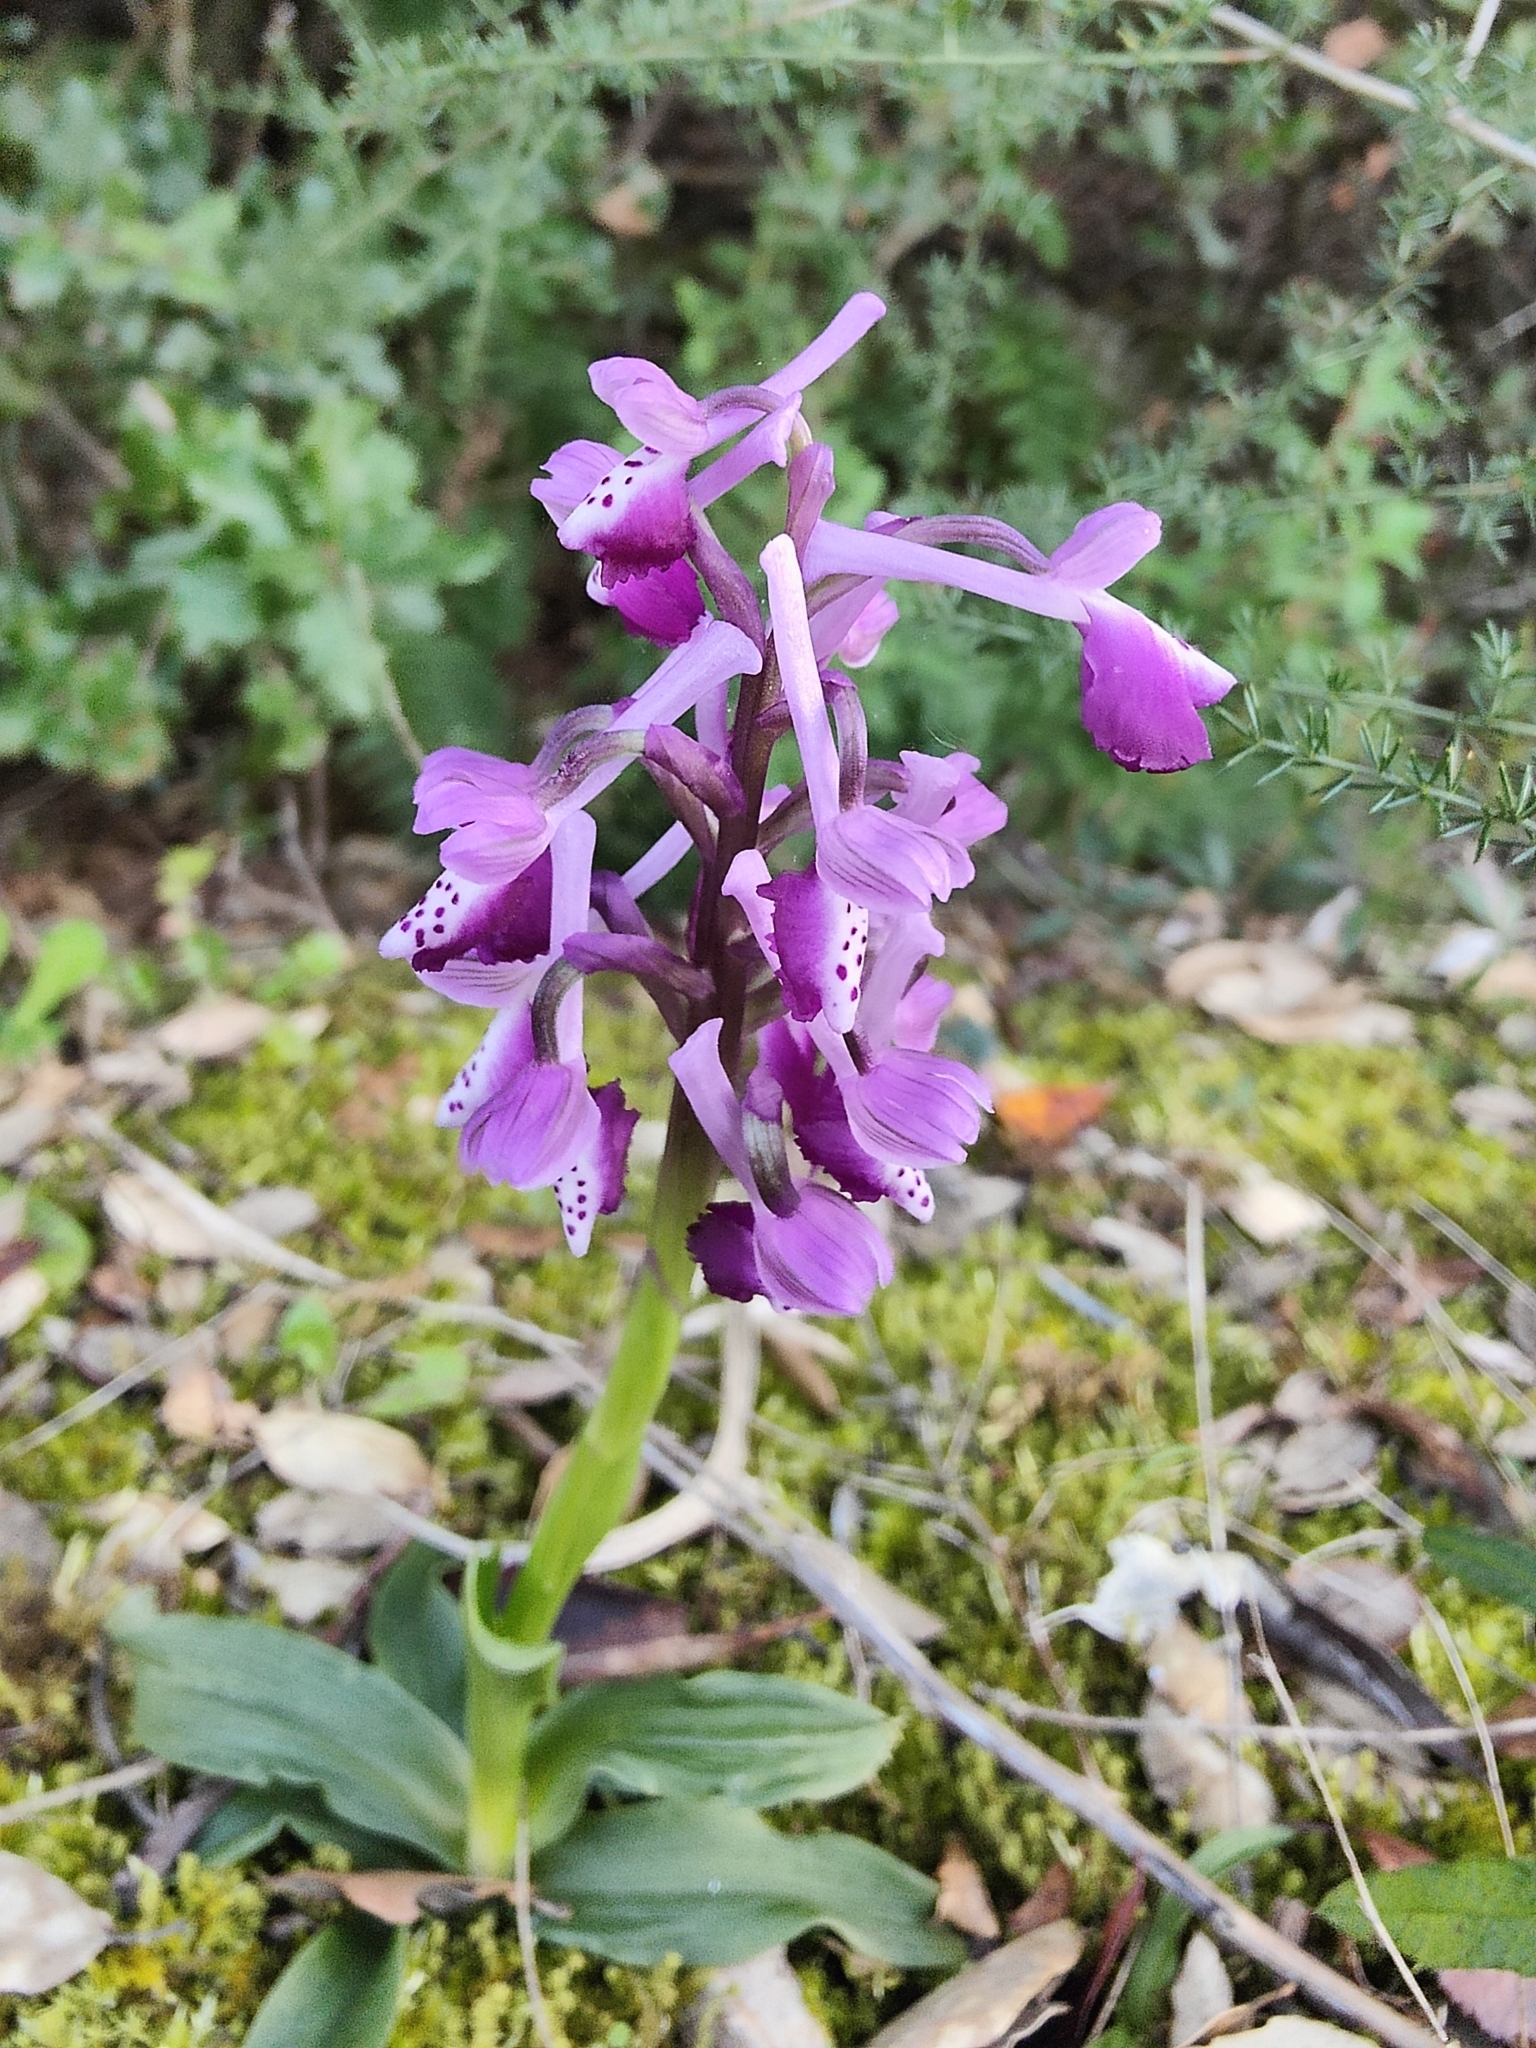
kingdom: Plantae
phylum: Tracheophyta
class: Liliopsida
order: Asparagales
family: Orchidaceae
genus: Anacamptis
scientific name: Anacamptis morio
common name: Green-winged orchid
